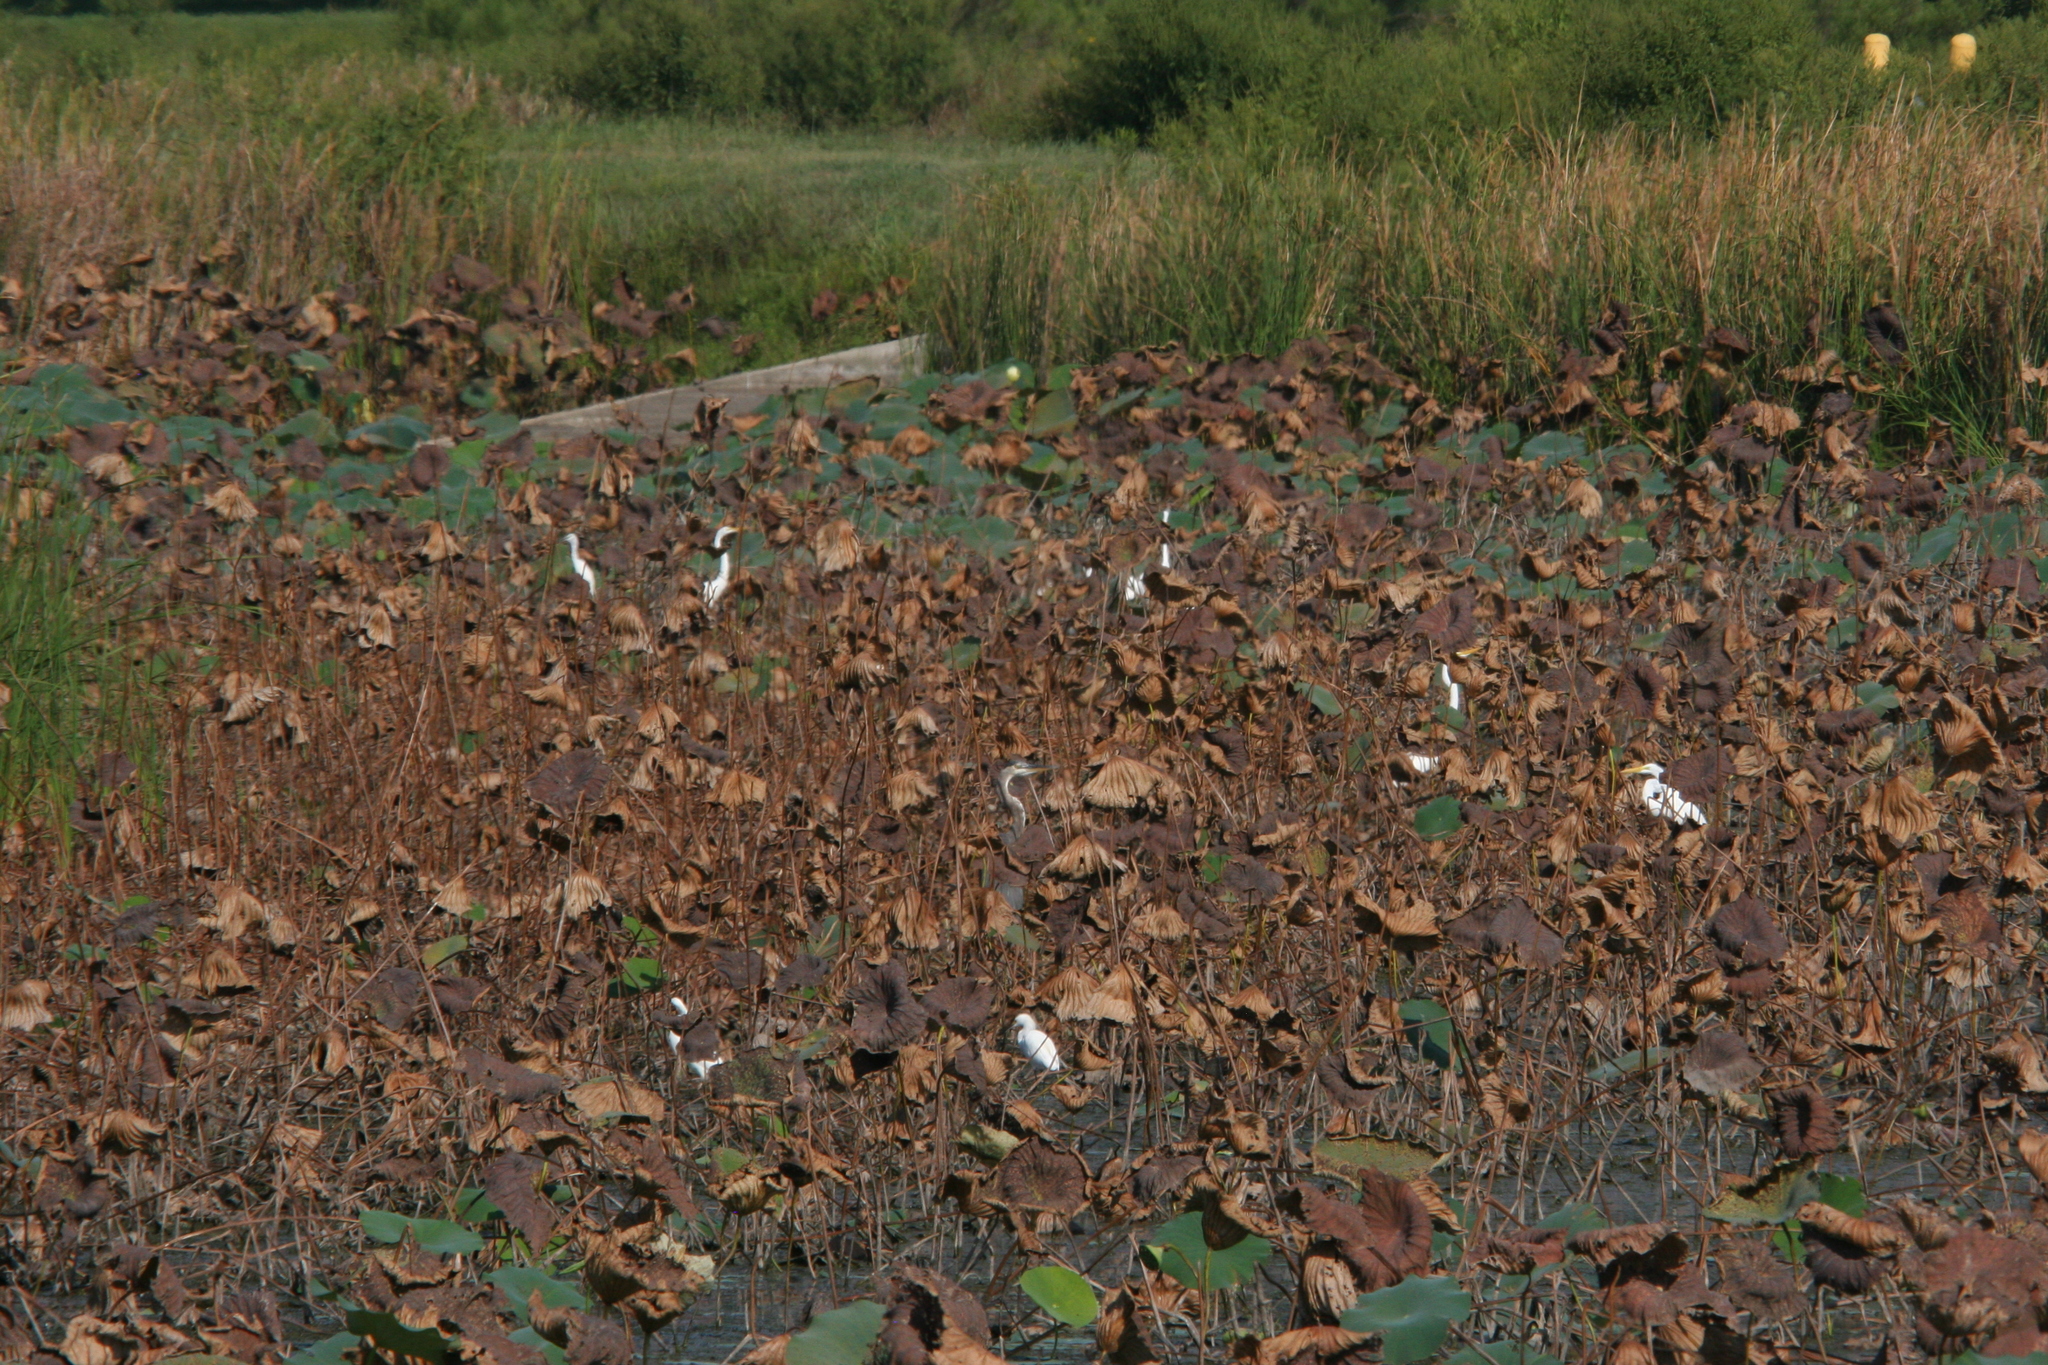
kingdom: Animalia
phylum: Chordata
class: Aves
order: Pelecaniformes
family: Ardeidae
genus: Egretta
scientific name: Egretta thula
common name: Snowy egret
